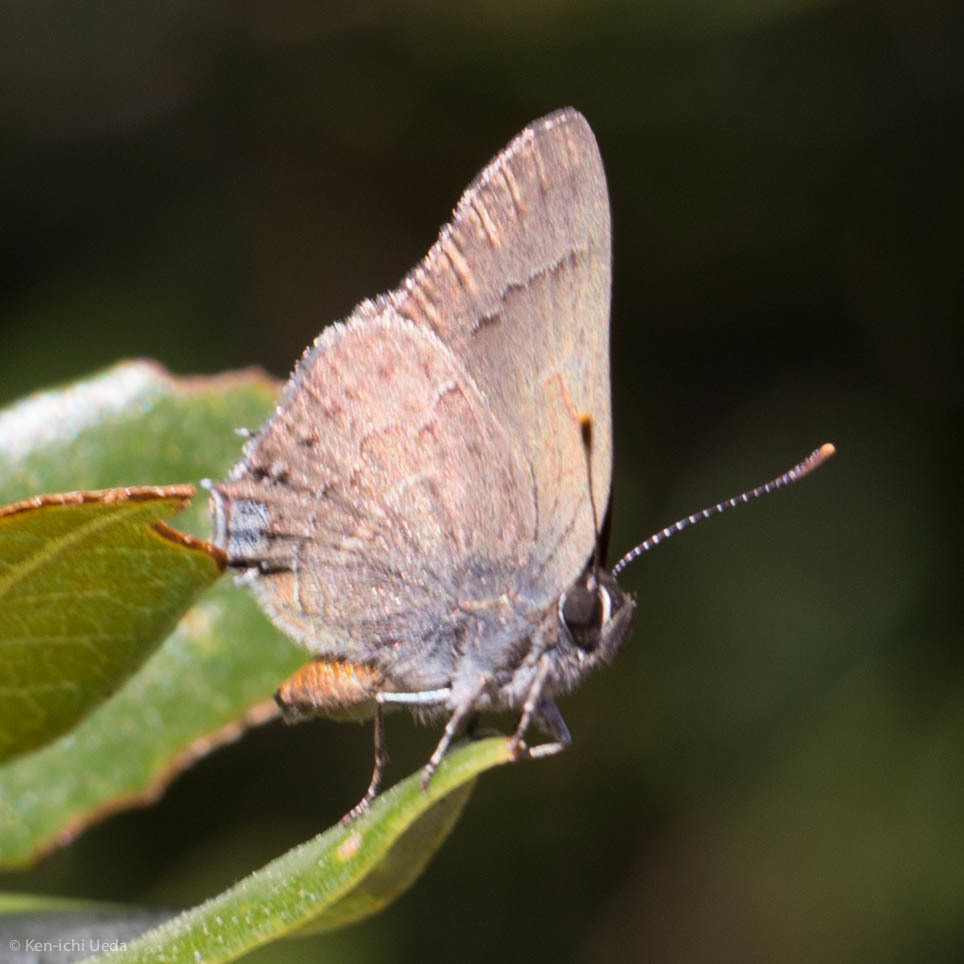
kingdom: Animalia
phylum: Arthropoda
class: Insecta
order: Lepidoptera
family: Lycaenidae
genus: Strymon
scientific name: Strymon saepium
